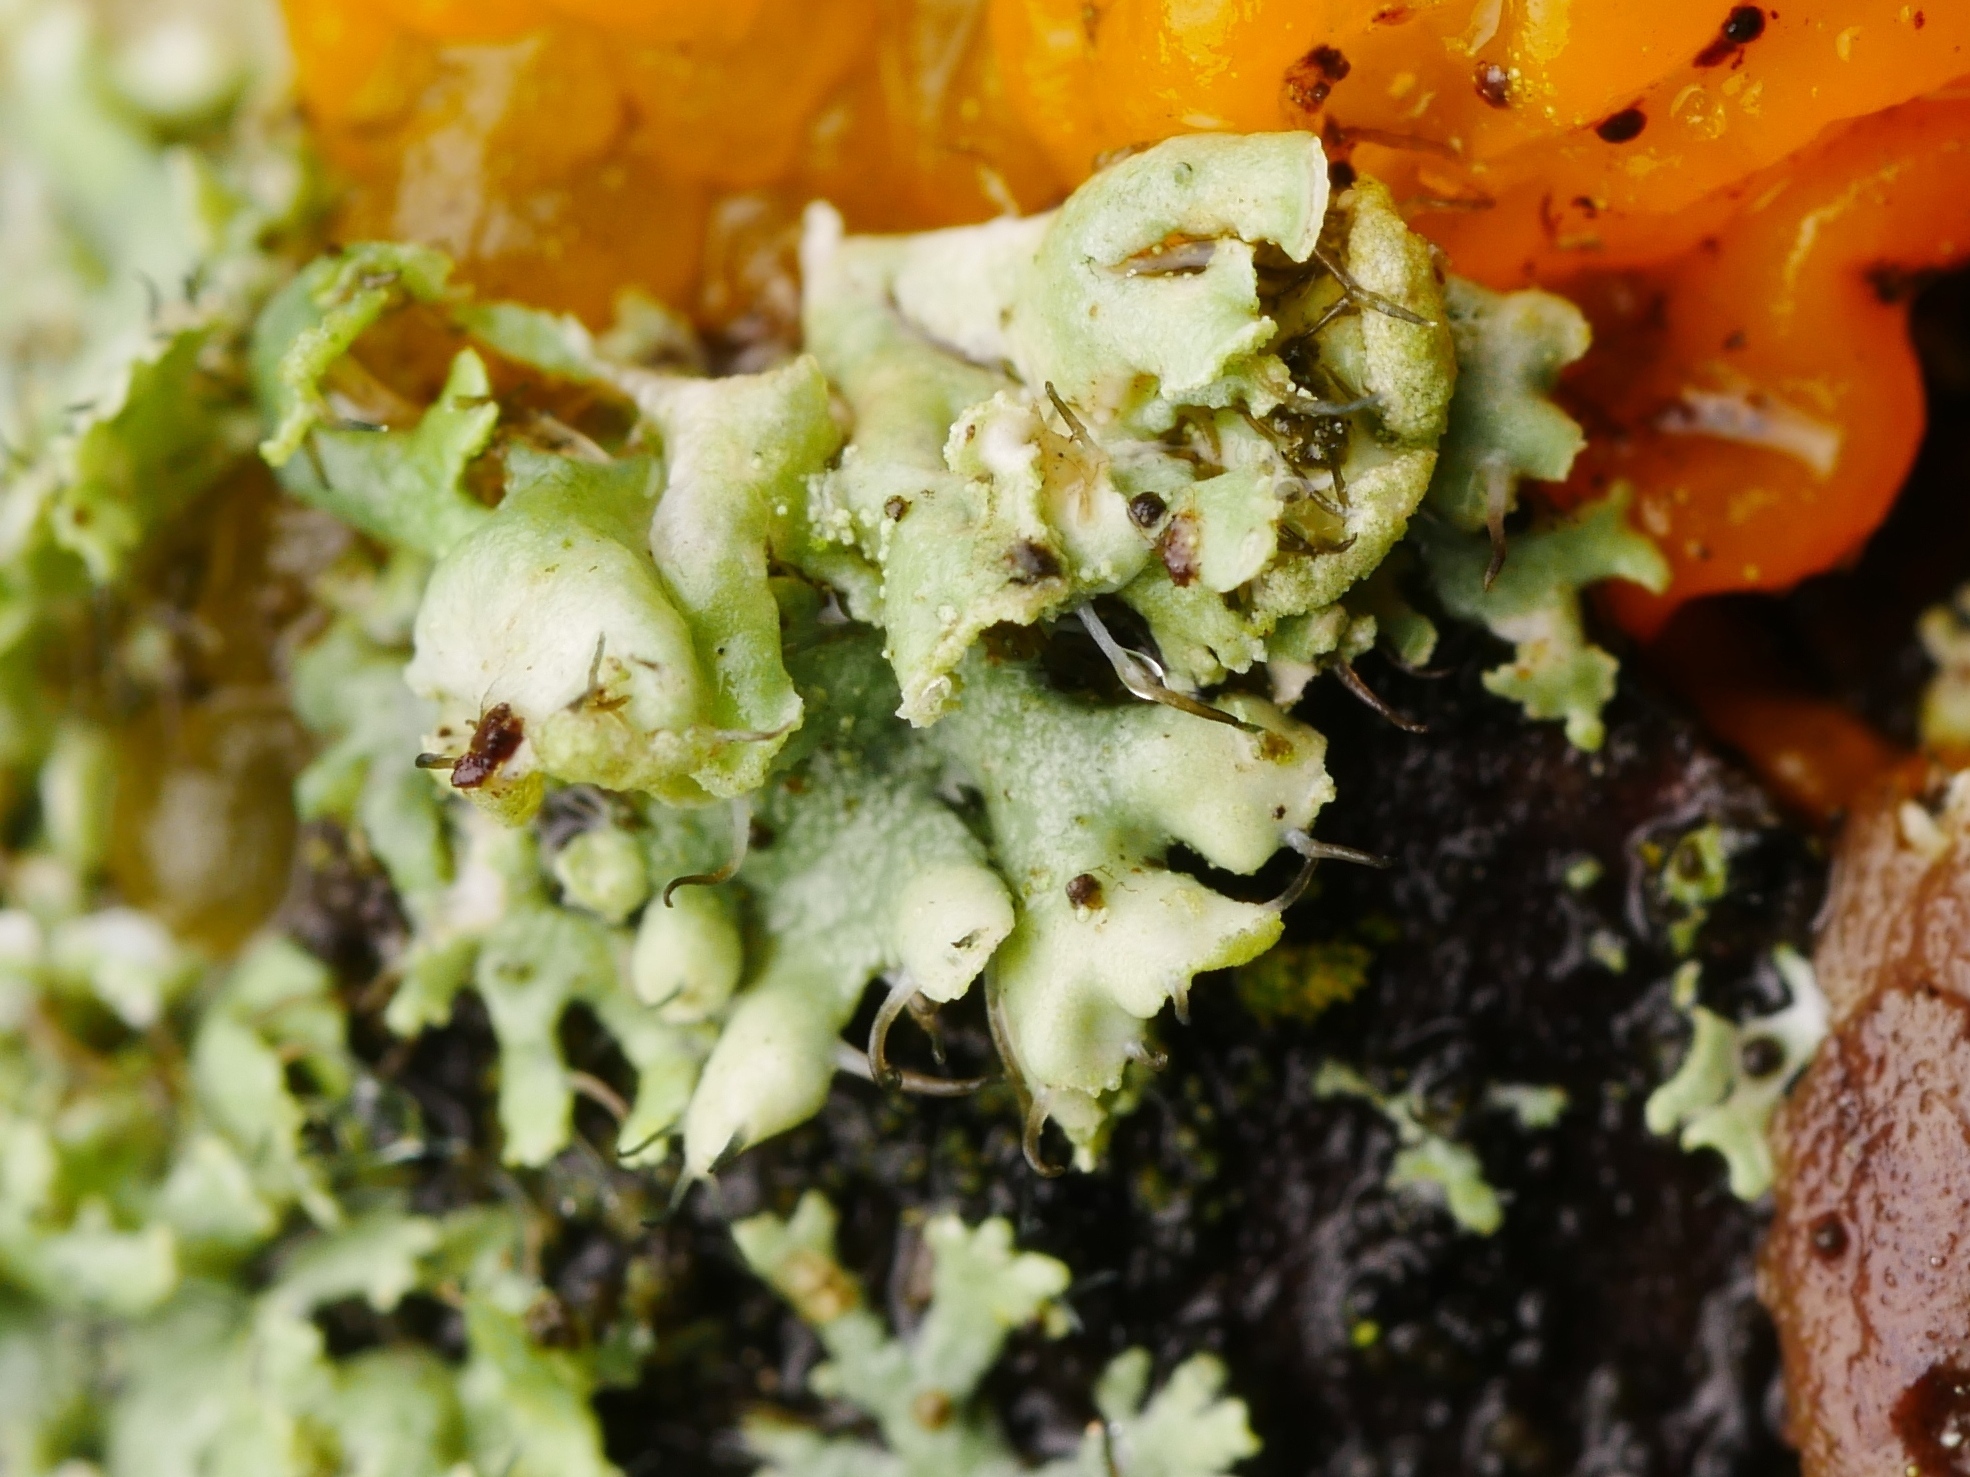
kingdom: Fungi
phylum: Ascomycota
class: Lecanoromycetes
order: Caliciales
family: Physciaceae
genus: Physcia
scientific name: Physcia adscendens
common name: Hooded rosette lichen
